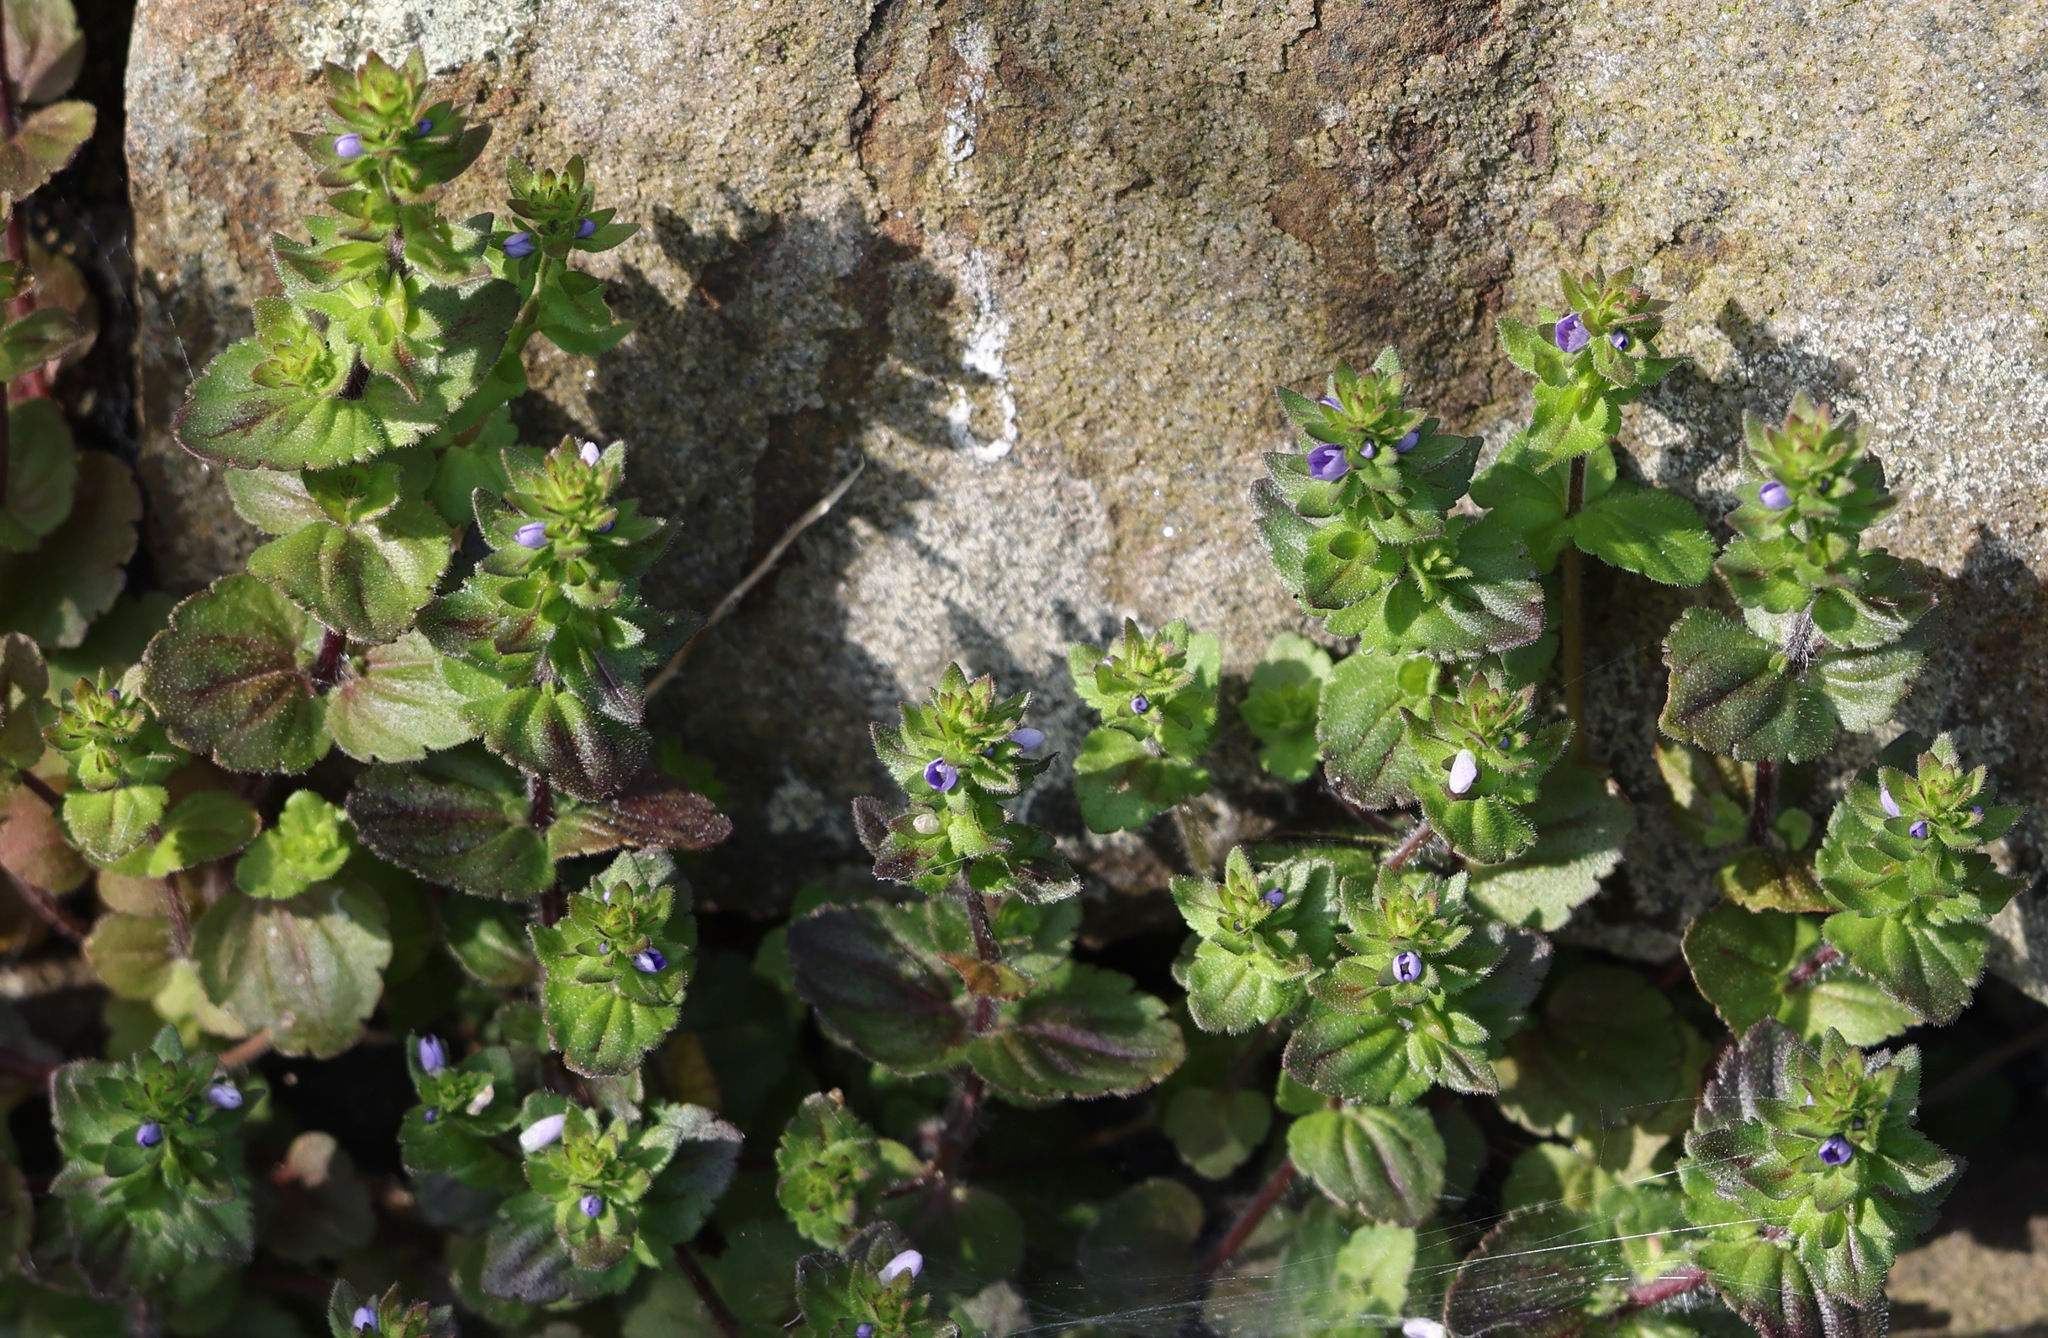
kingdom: Plantae
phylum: Tracheophyta
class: Magnoliopsida
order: Lamiales
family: Plantaginaceae
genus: Veronica
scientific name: Veronica arvensis
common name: Corn speedwell
